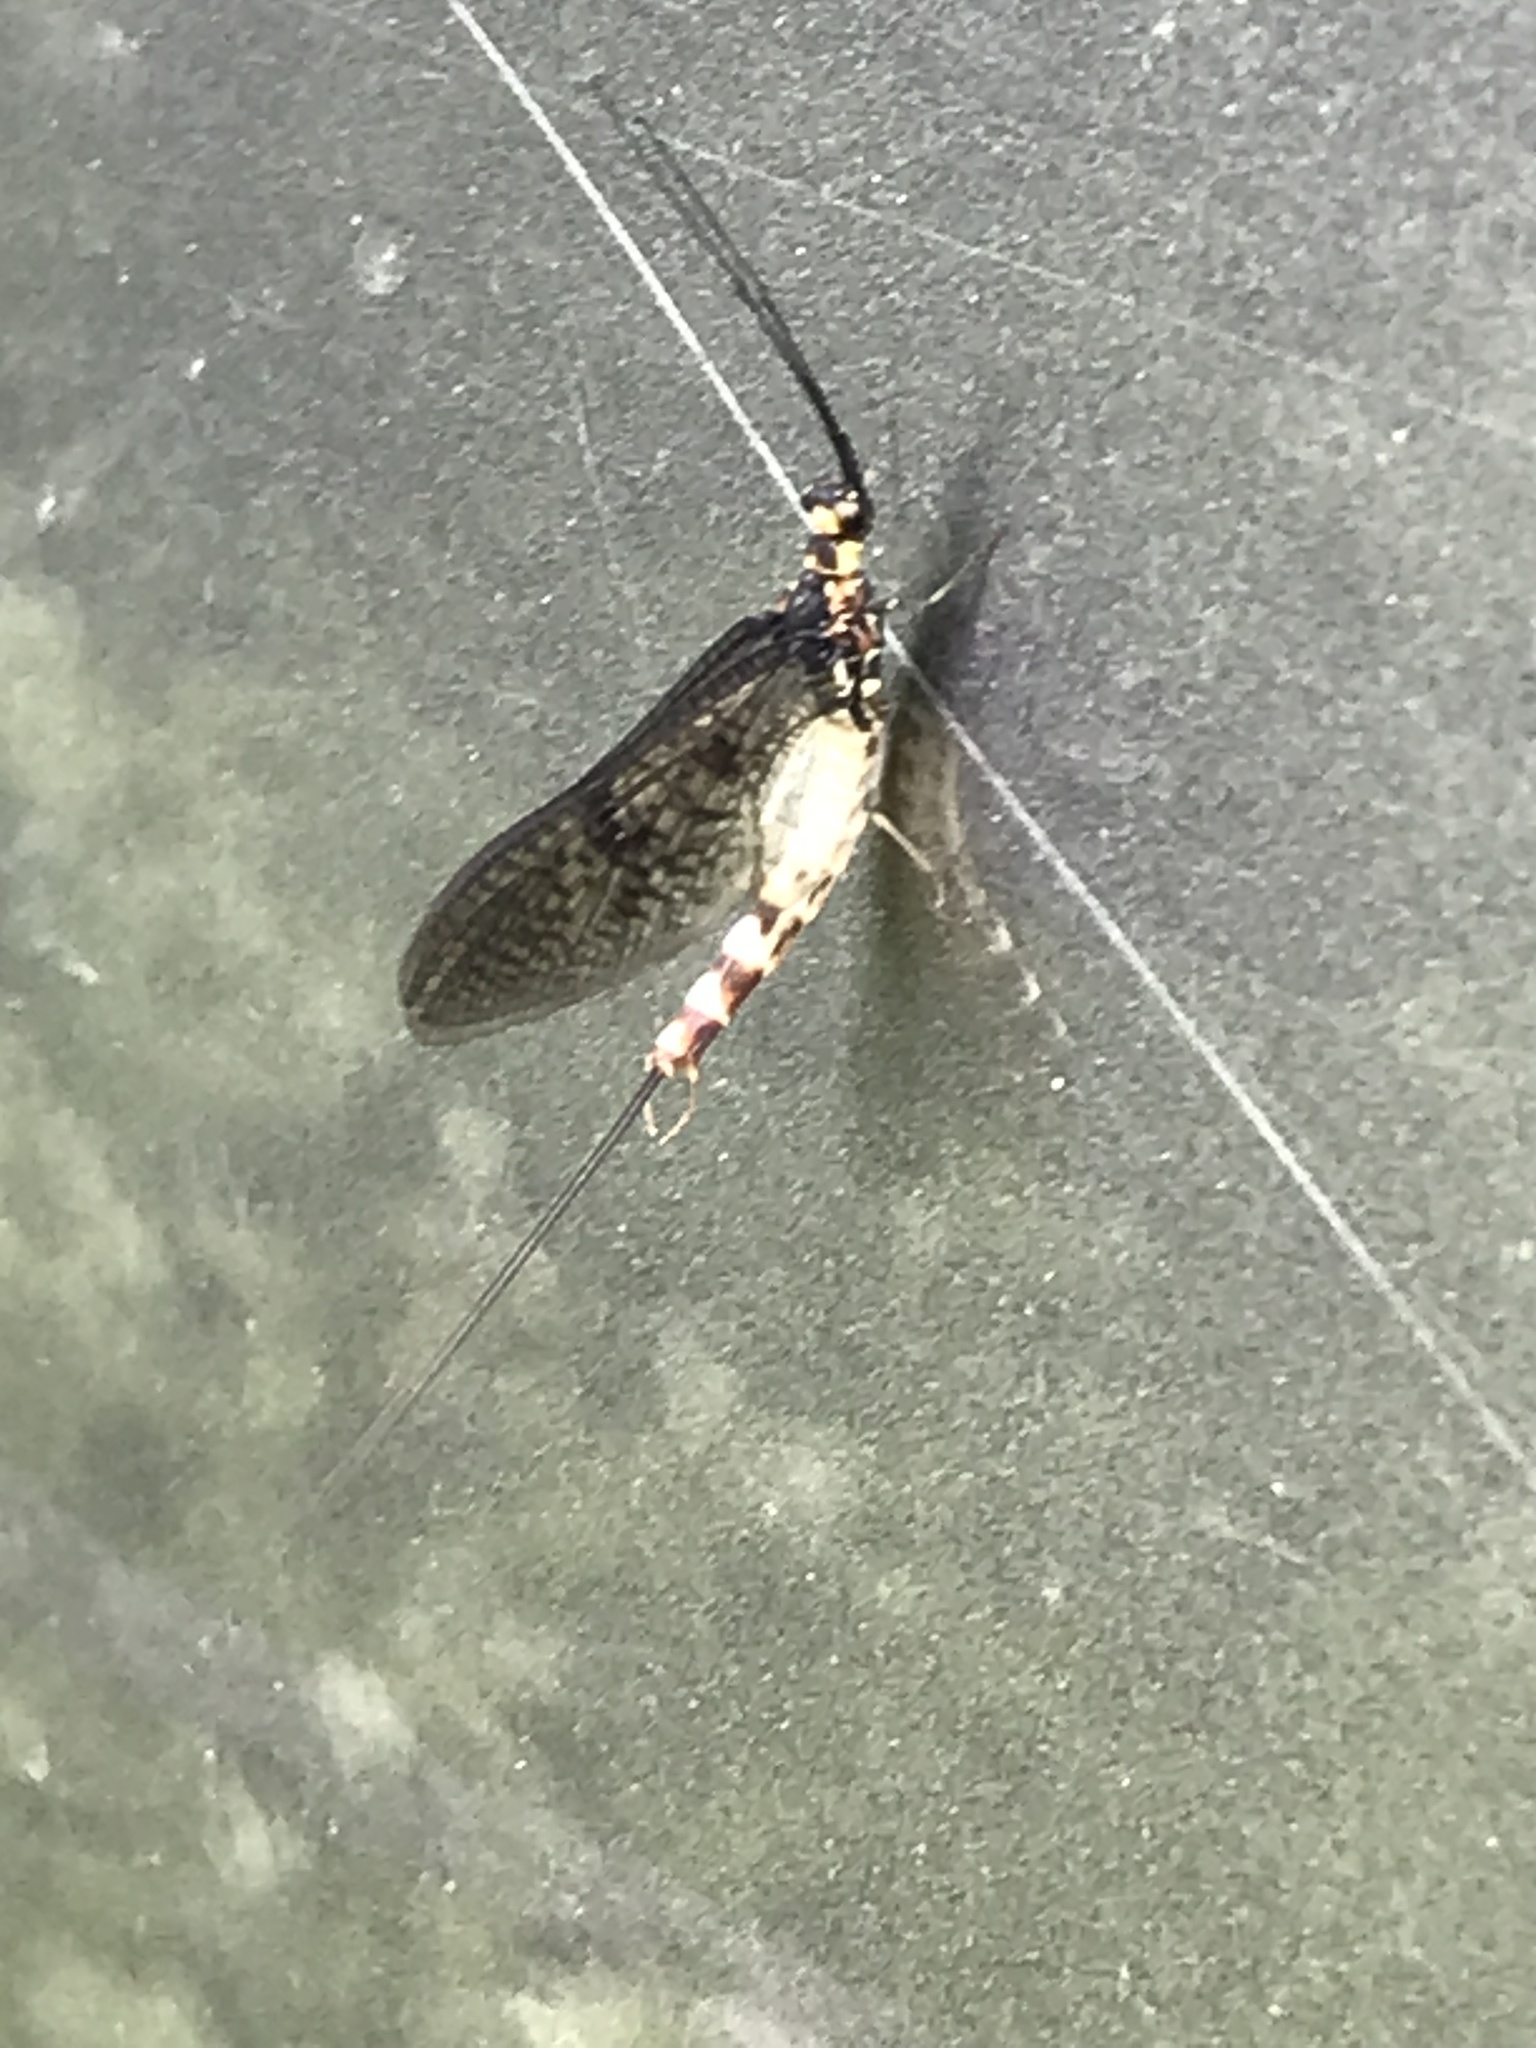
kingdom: Animalia
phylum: Arthropoda
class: Insecta
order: Ephemeroptera
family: Ephemeridae
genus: Ephemera
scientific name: Ephemera danica
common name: Green dun
